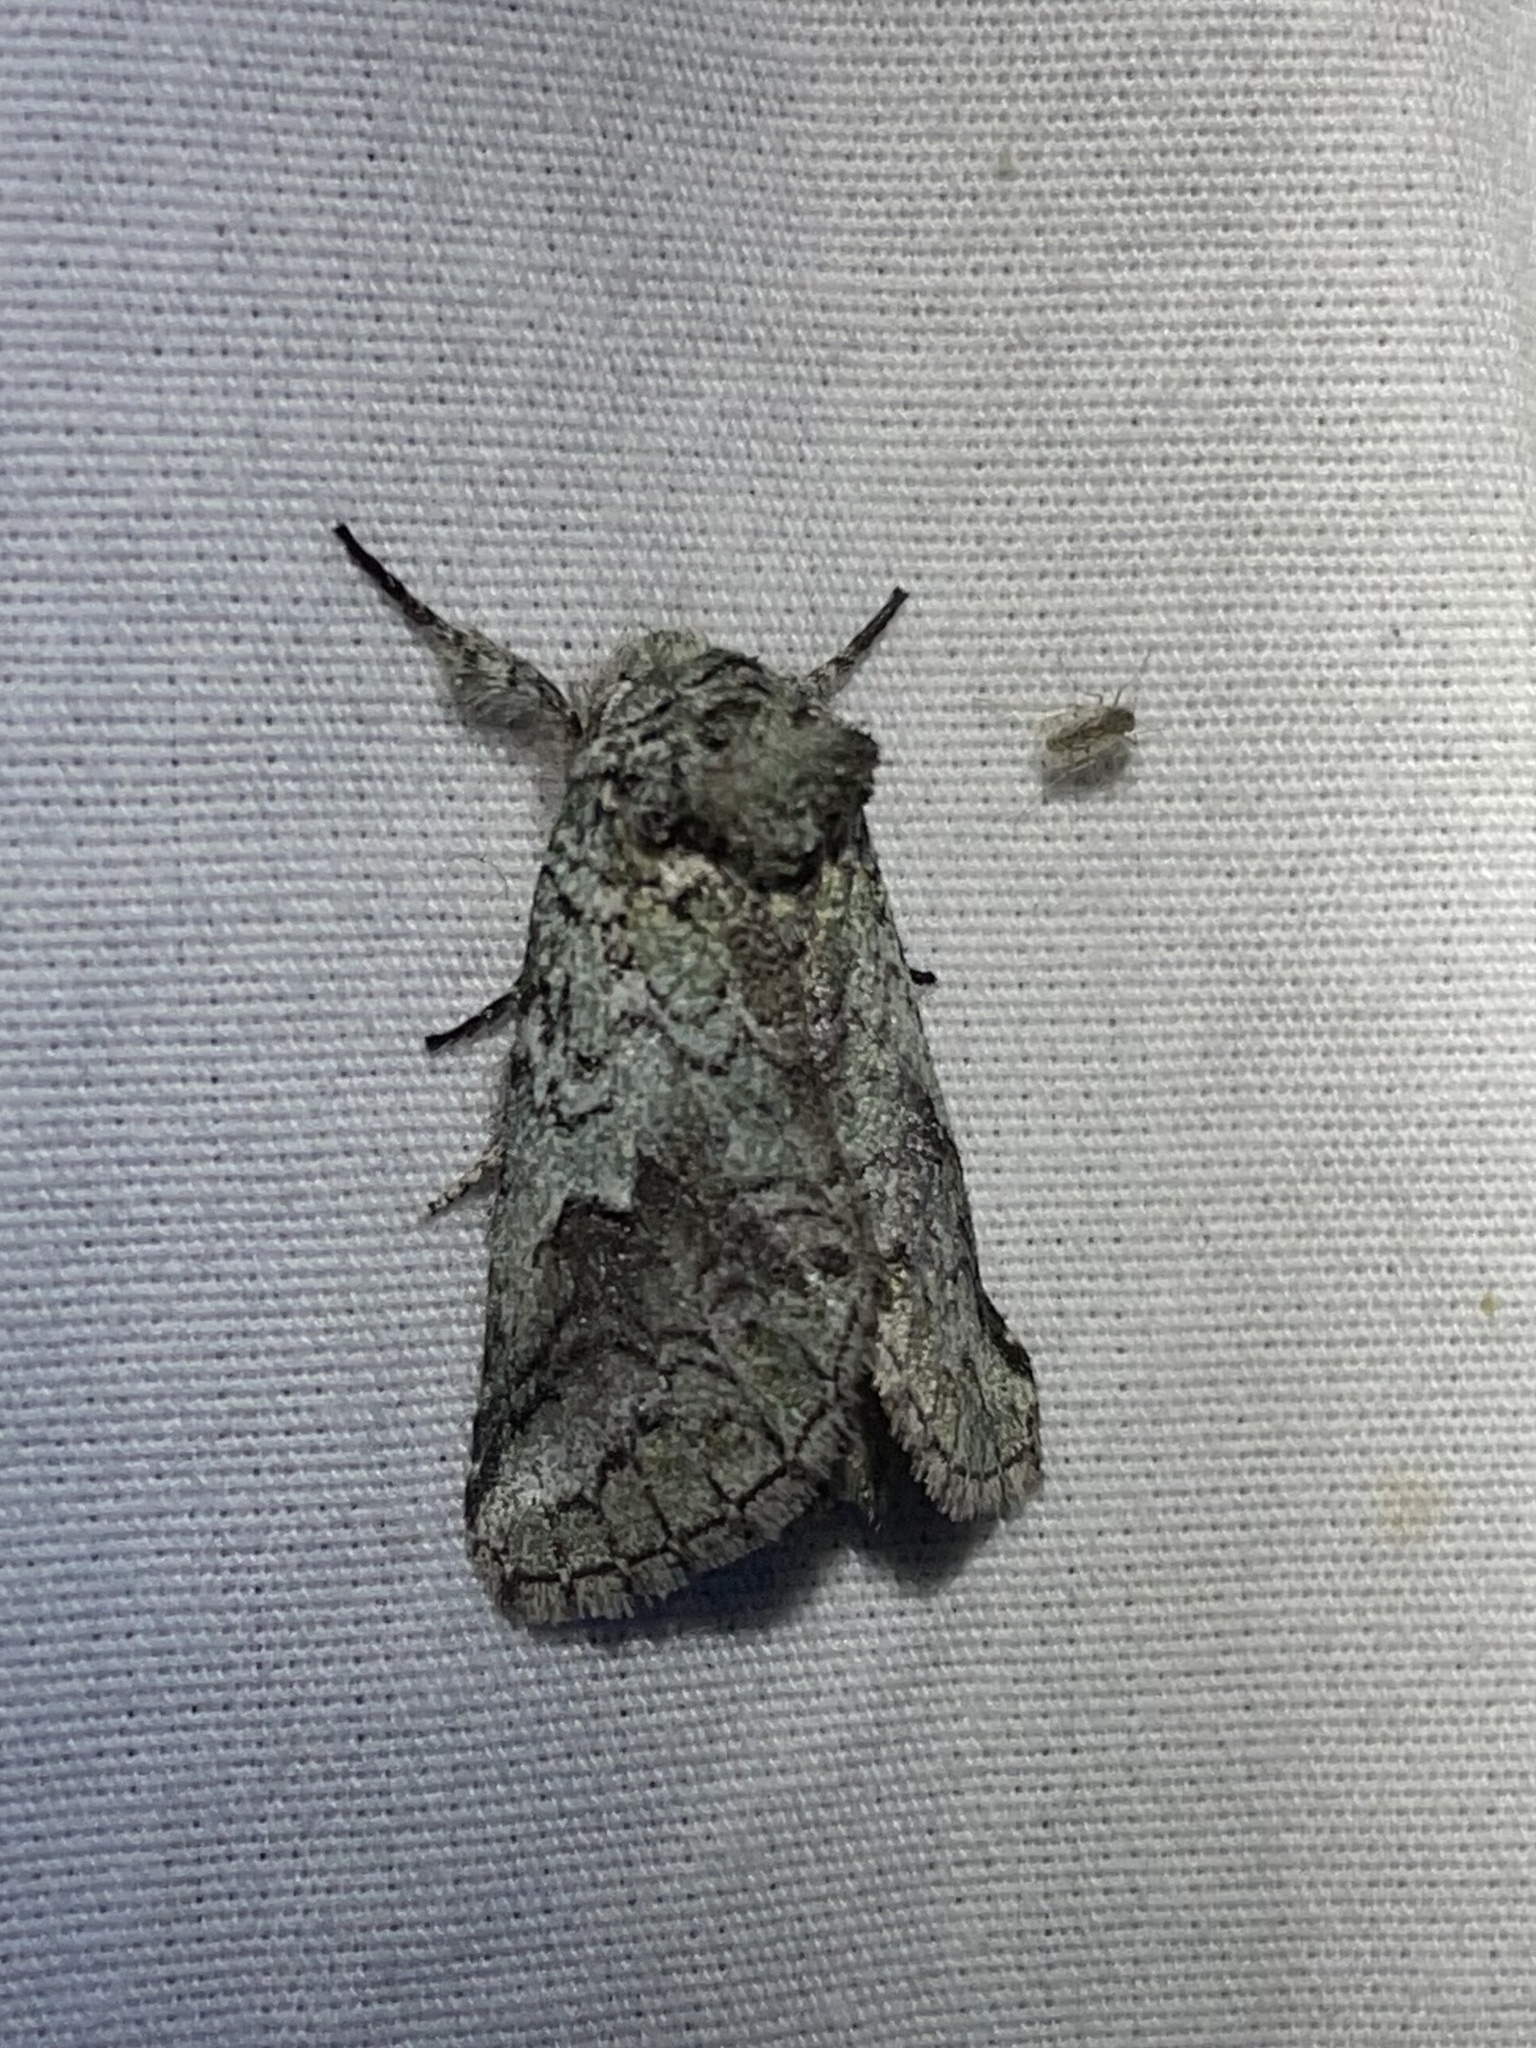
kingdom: Animalia
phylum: Arthropoda
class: Insecta
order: Lepidoptera
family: Notodontidae
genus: Litodonta
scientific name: Litodonta hydromeli
